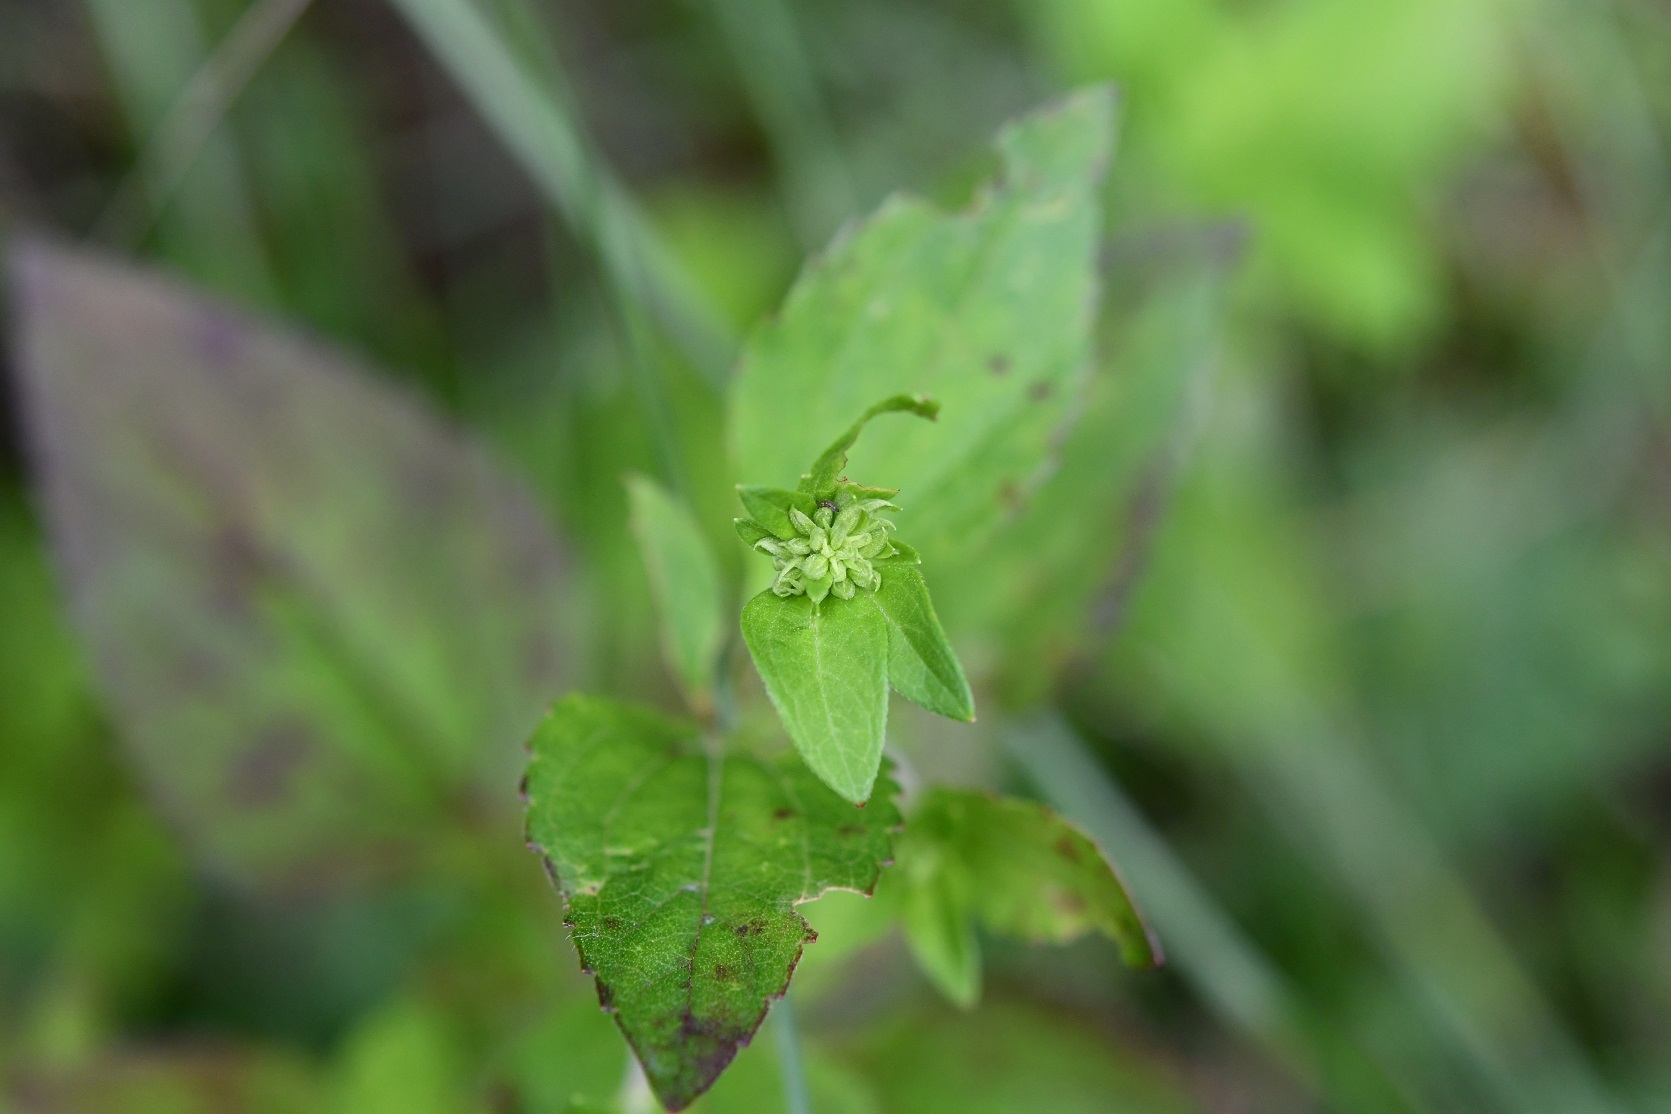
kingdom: Plantae
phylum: Tracheophyta
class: Magnoliopsida
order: Asterales
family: Asteraceae
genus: Trixis
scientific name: Trixis inula
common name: Tropical threefold
